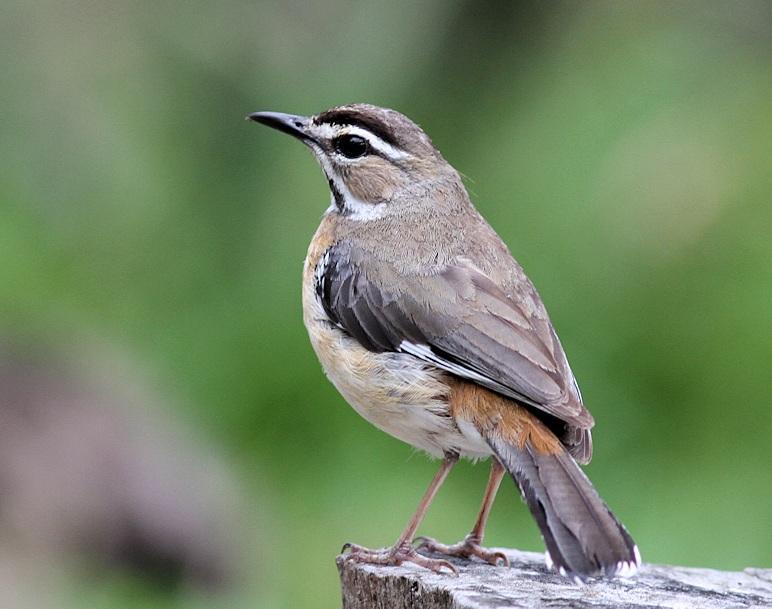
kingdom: Animalia
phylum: Chordata
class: Aves
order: Passeriformes
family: Muscicapidae
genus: Erythropygia
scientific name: Erythropygia quadrivirgata
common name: Bearded scrub robin
